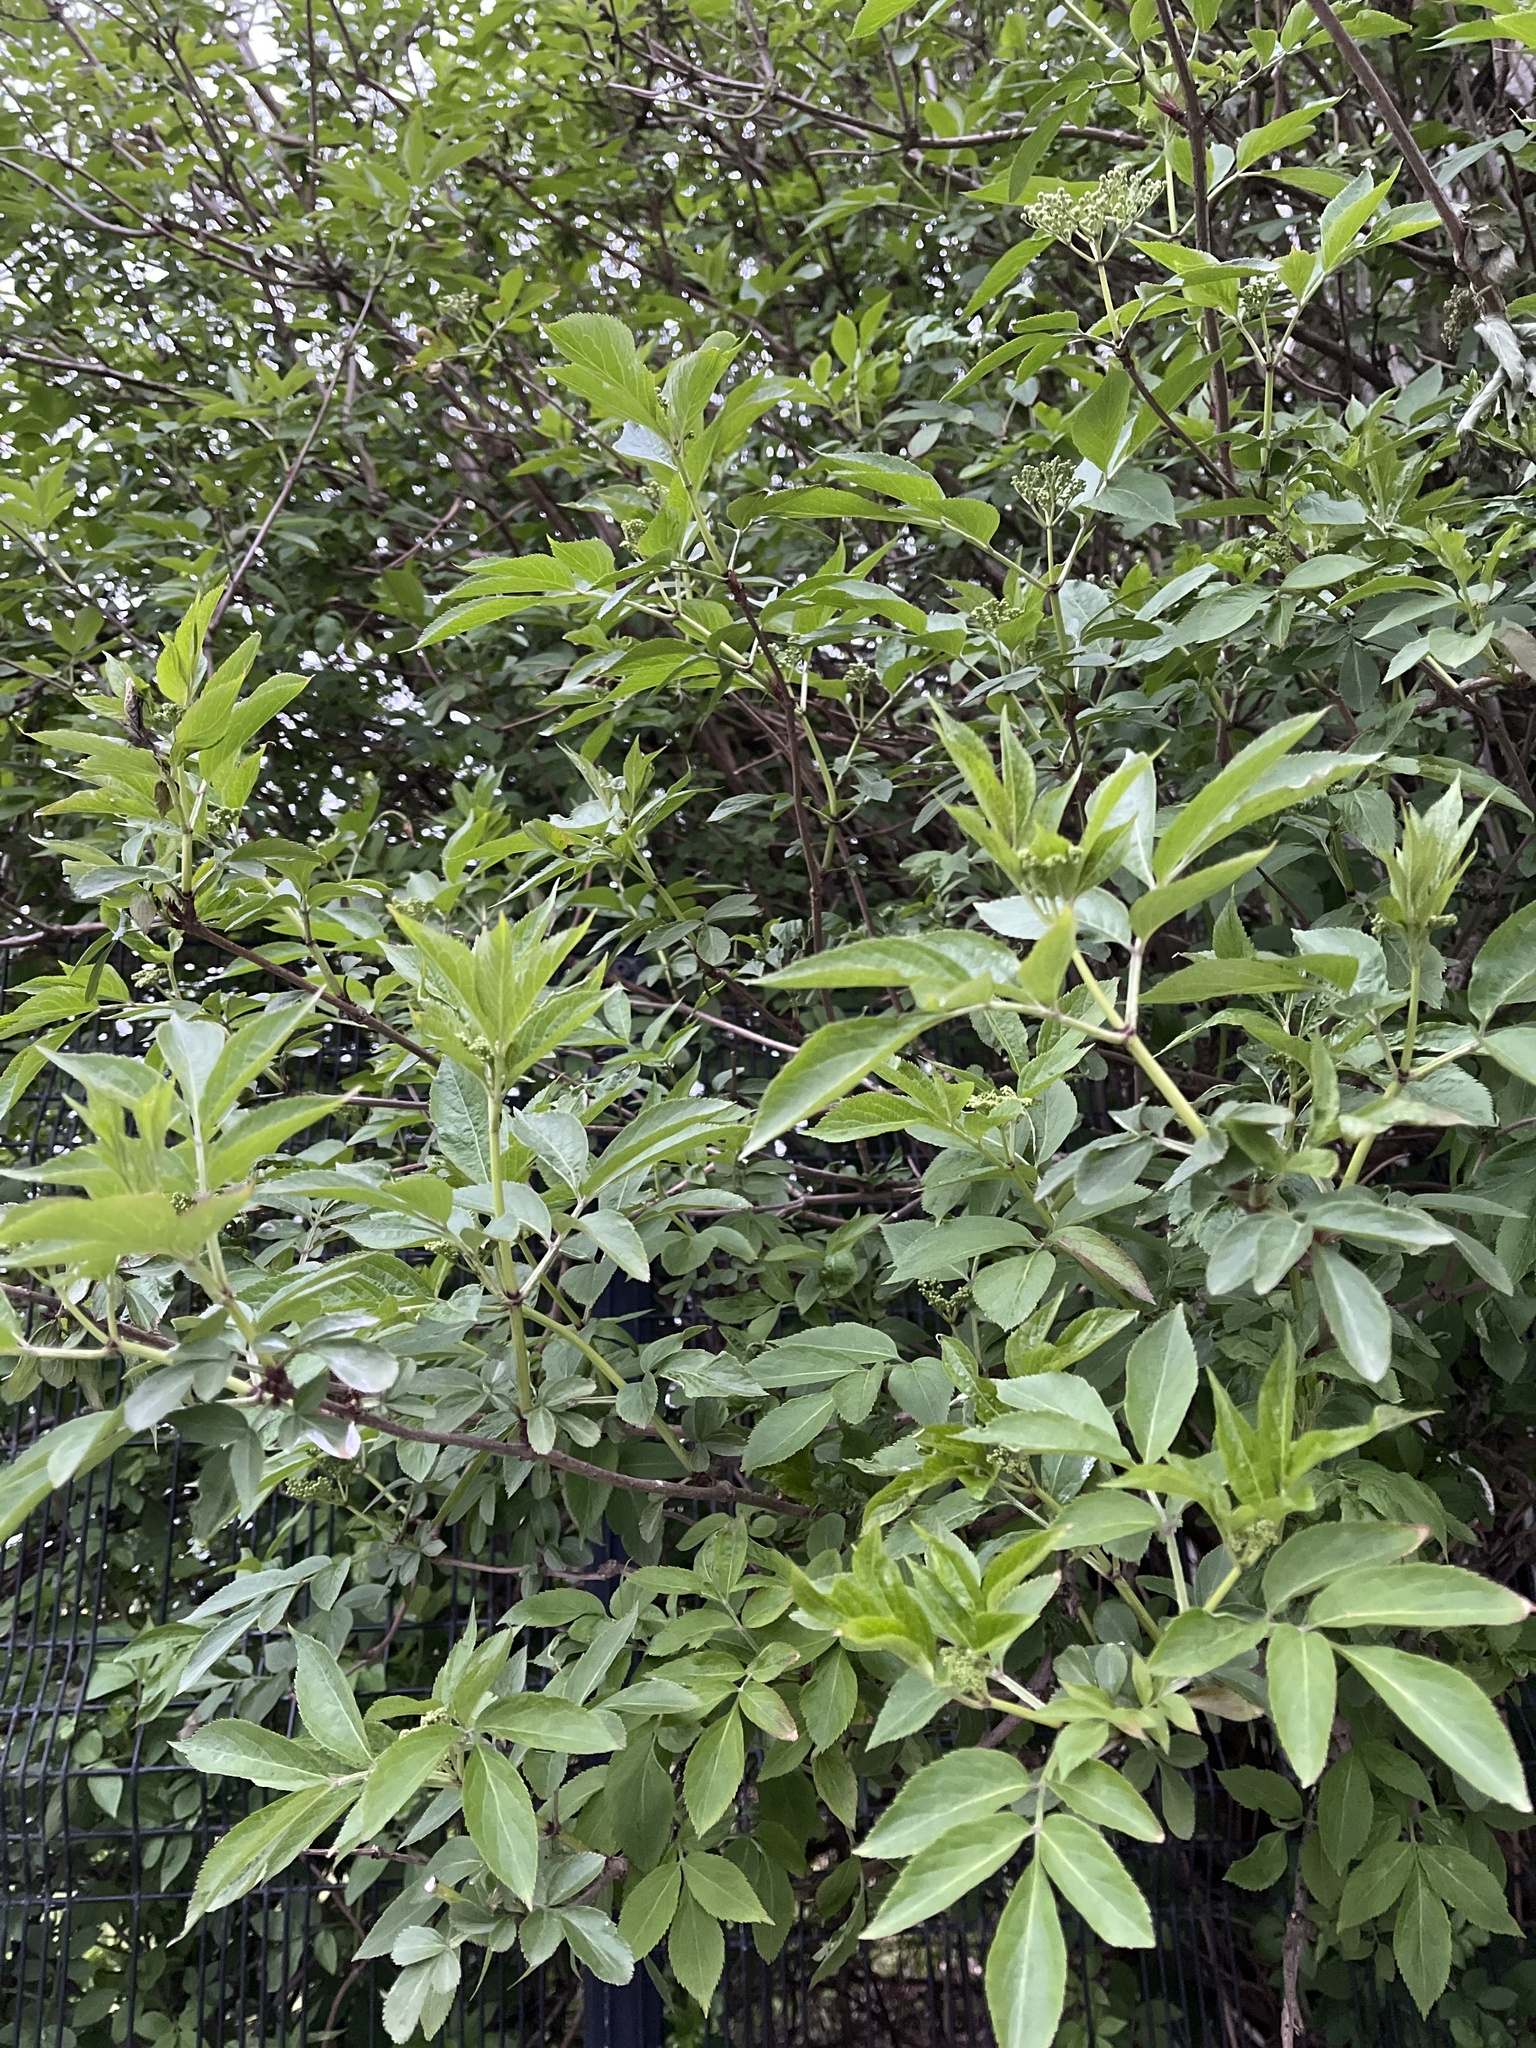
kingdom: Plantae
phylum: Tracheophyta
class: Magnoliopsida
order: Dipsacales
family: Viburnaceae
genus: Sambucus
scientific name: Sambucus nigra
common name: Elder
